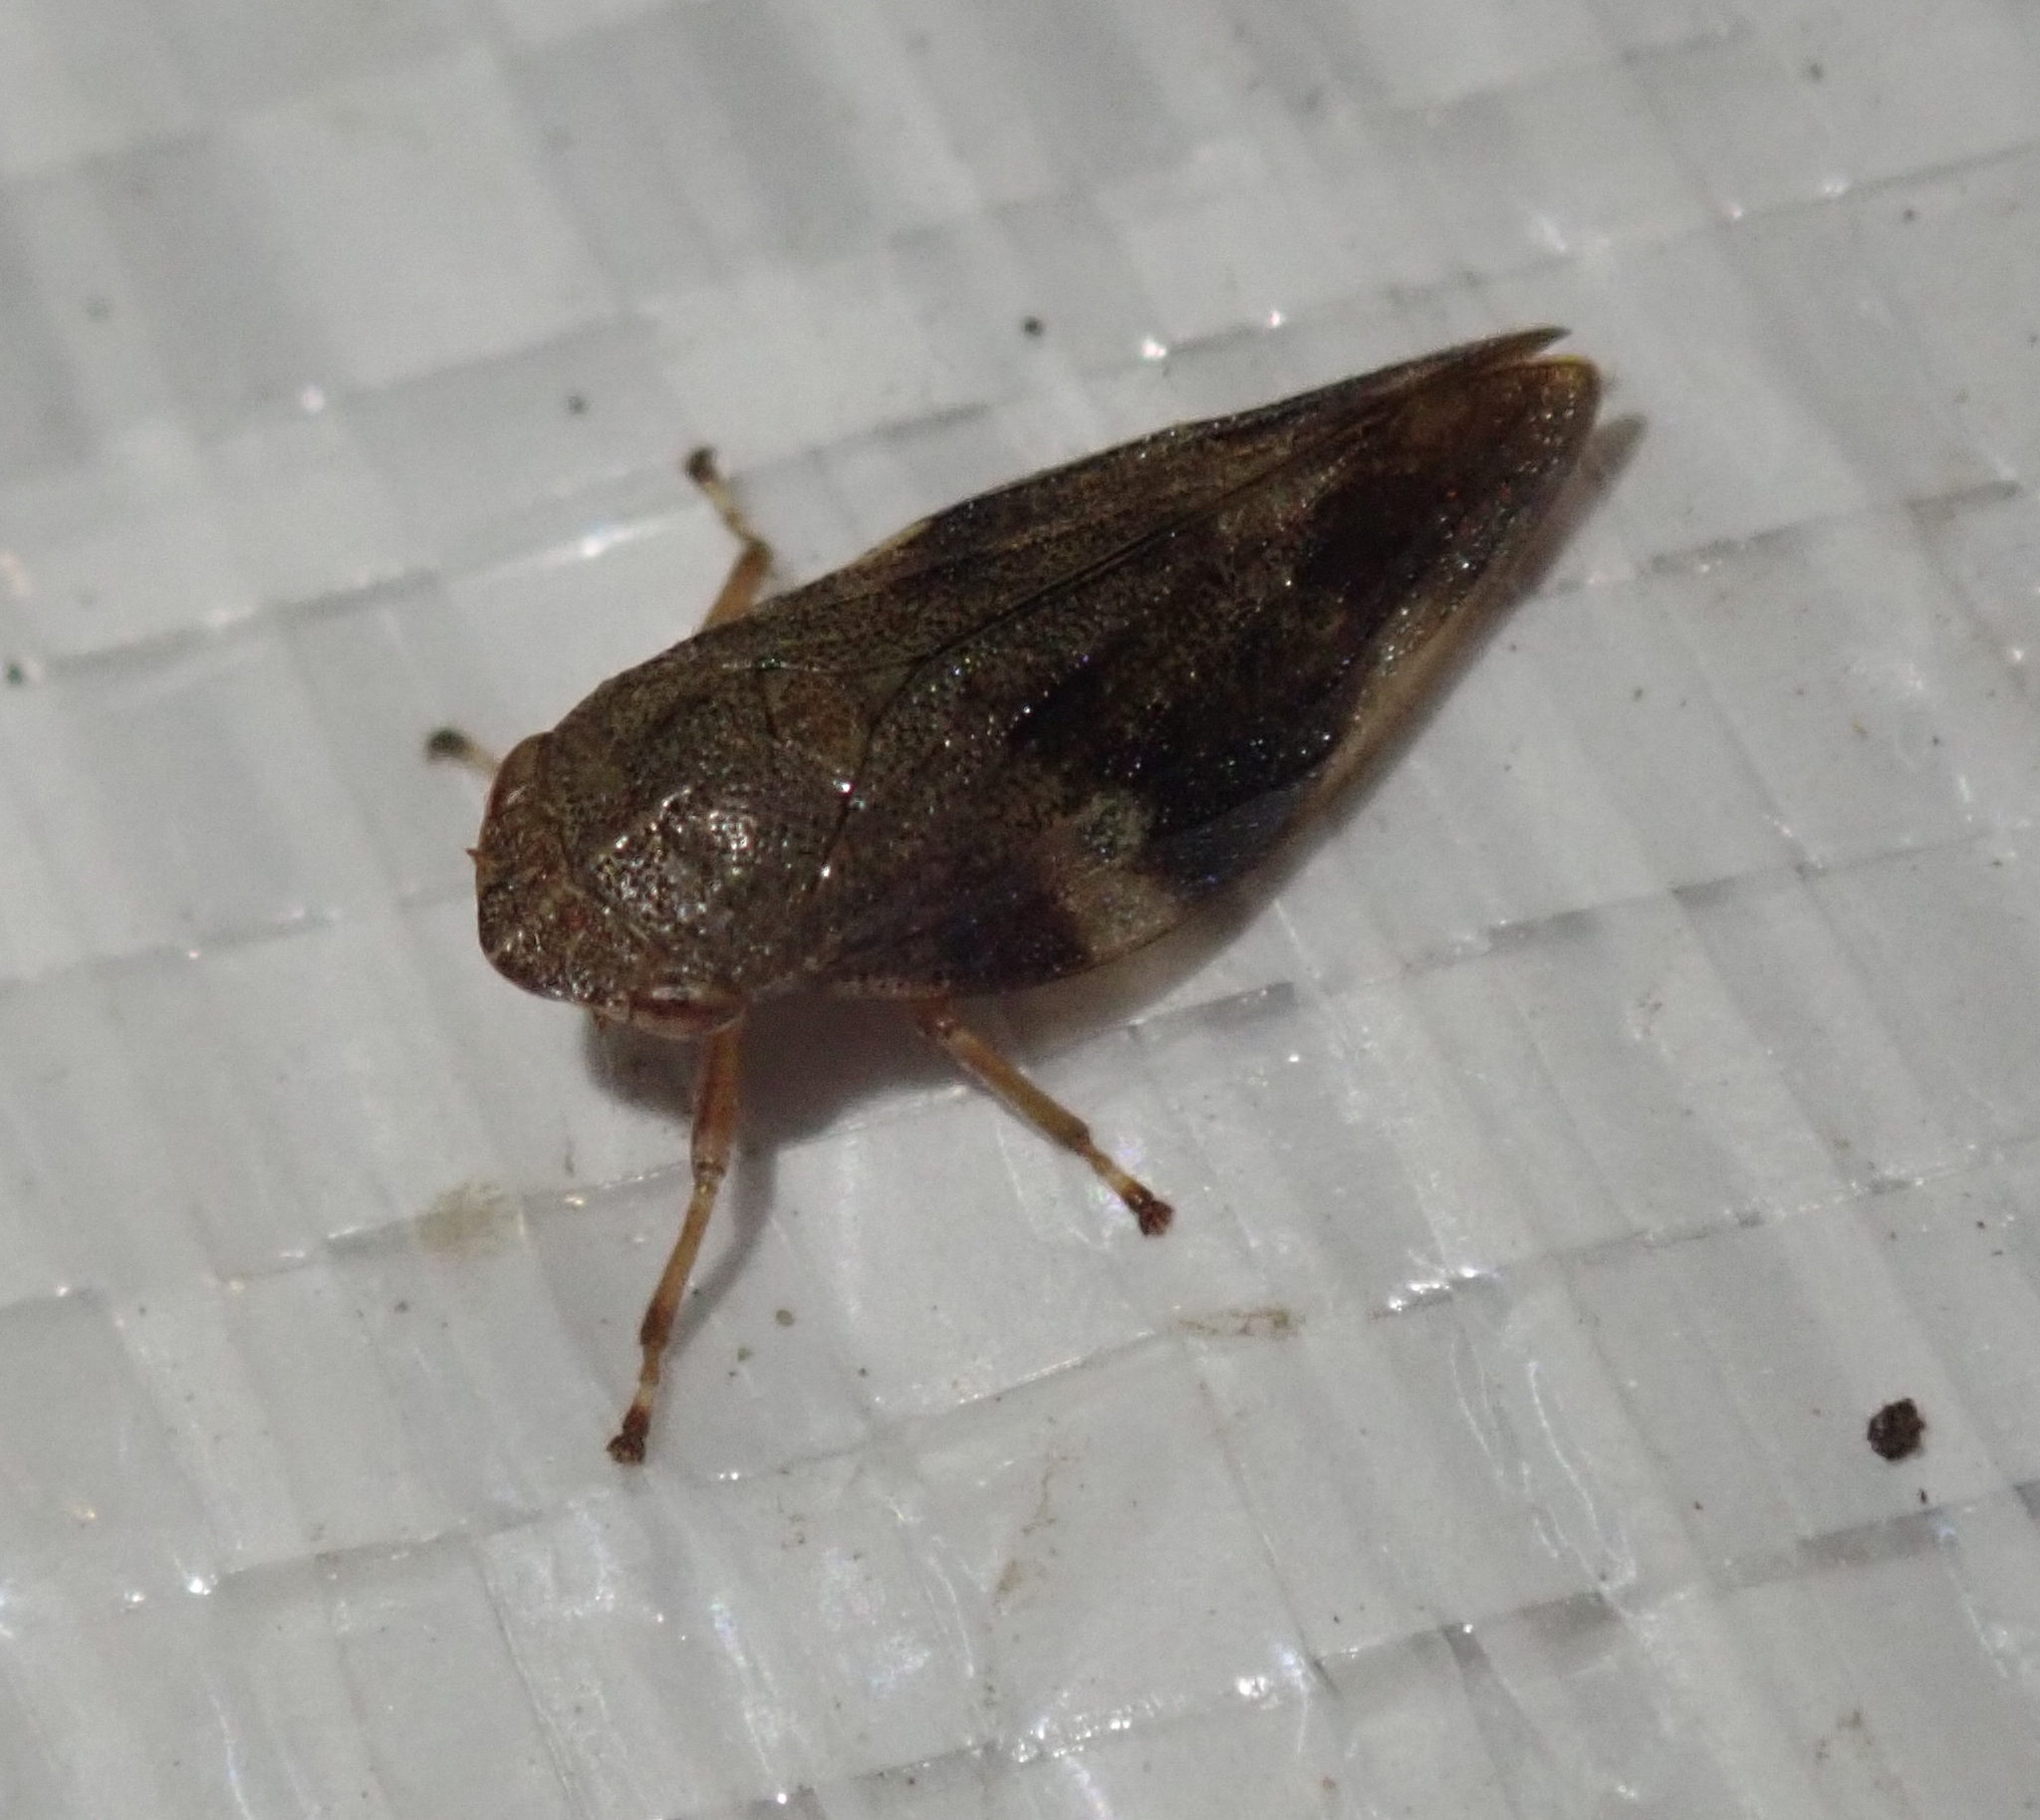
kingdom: Animalia
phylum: Arthropoda
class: Insecta
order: Hemiptera
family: Aphrophoridae
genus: Aphrophora
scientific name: Aphrophora alni
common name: European alder spittlebug
